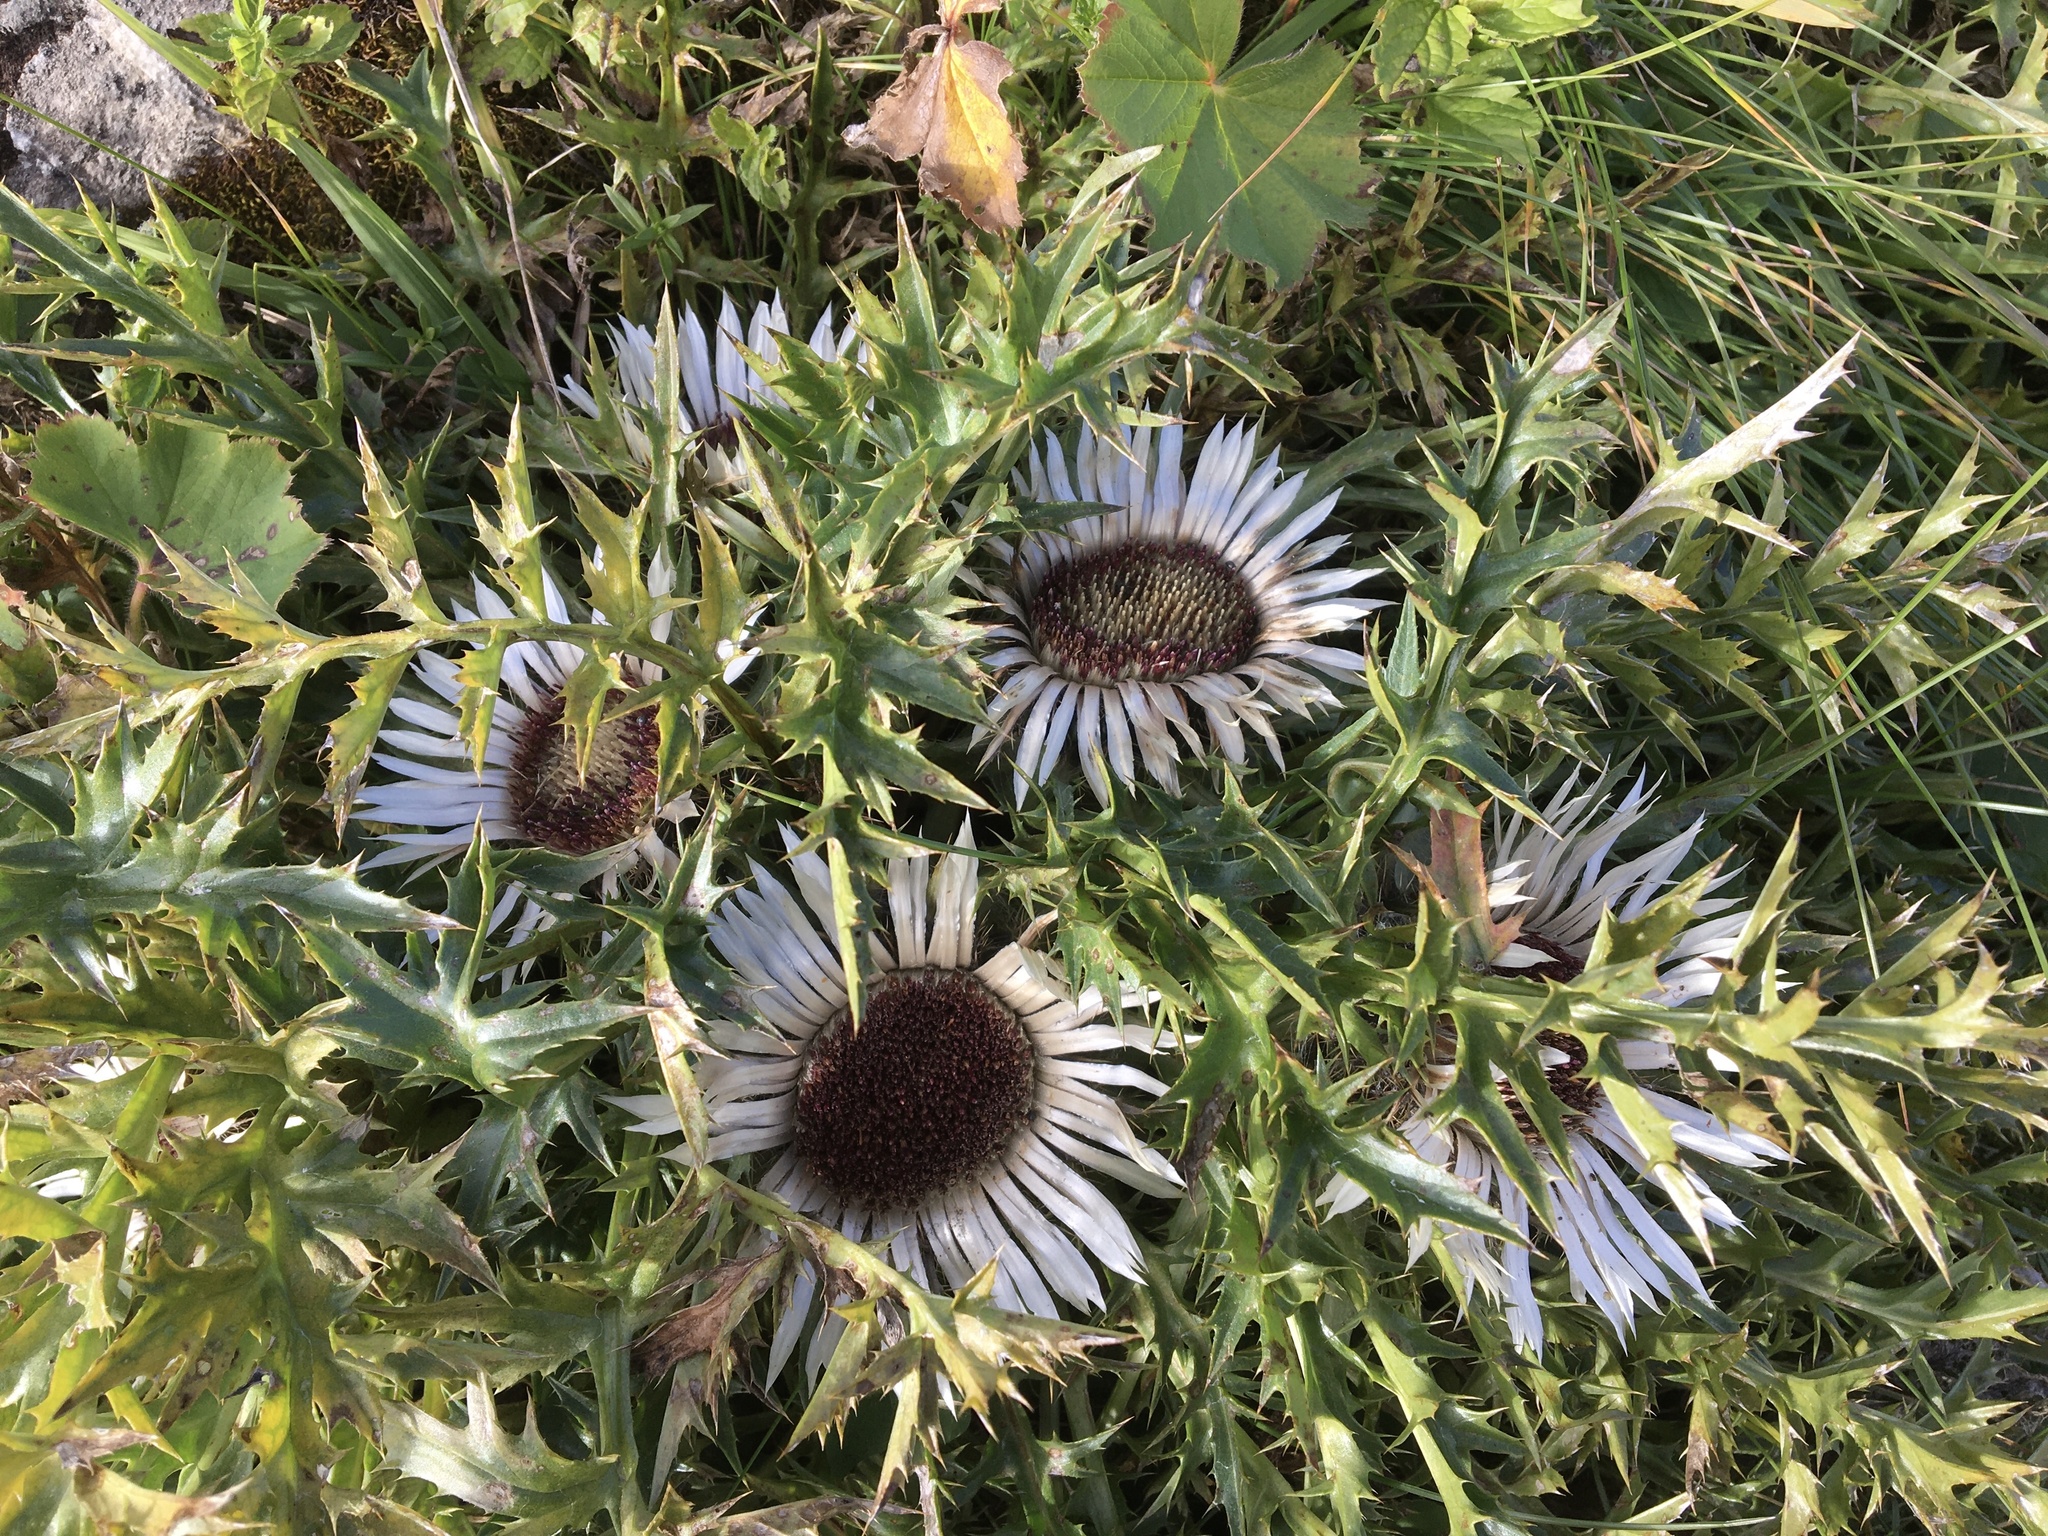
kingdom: Plantae
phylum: Tracheophyta
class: Magnoliopsida
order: Asterales
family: Asteraceae
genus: Carlina
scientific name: Carlina acaulis
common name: Stemless carline thistle
